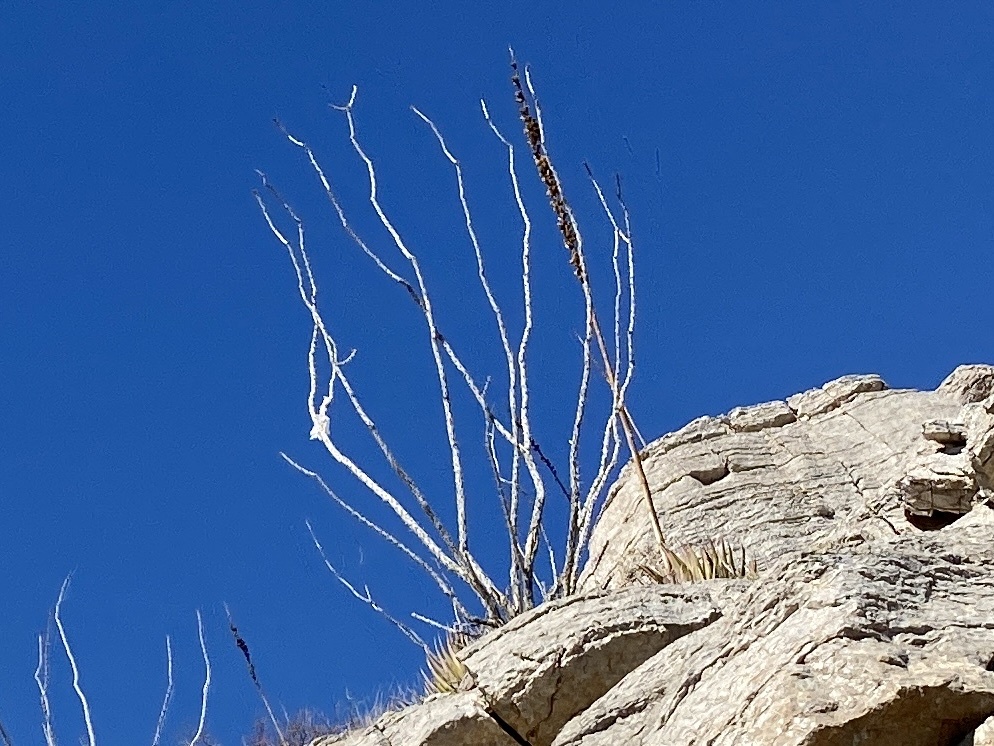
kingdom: Plantae
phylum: Tracheophyta
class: Magnoliopsida
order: Ericales
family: Fouquieriaceae
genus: Fouquieria
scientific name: Fouquieria splendens
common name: Vine-cactus
